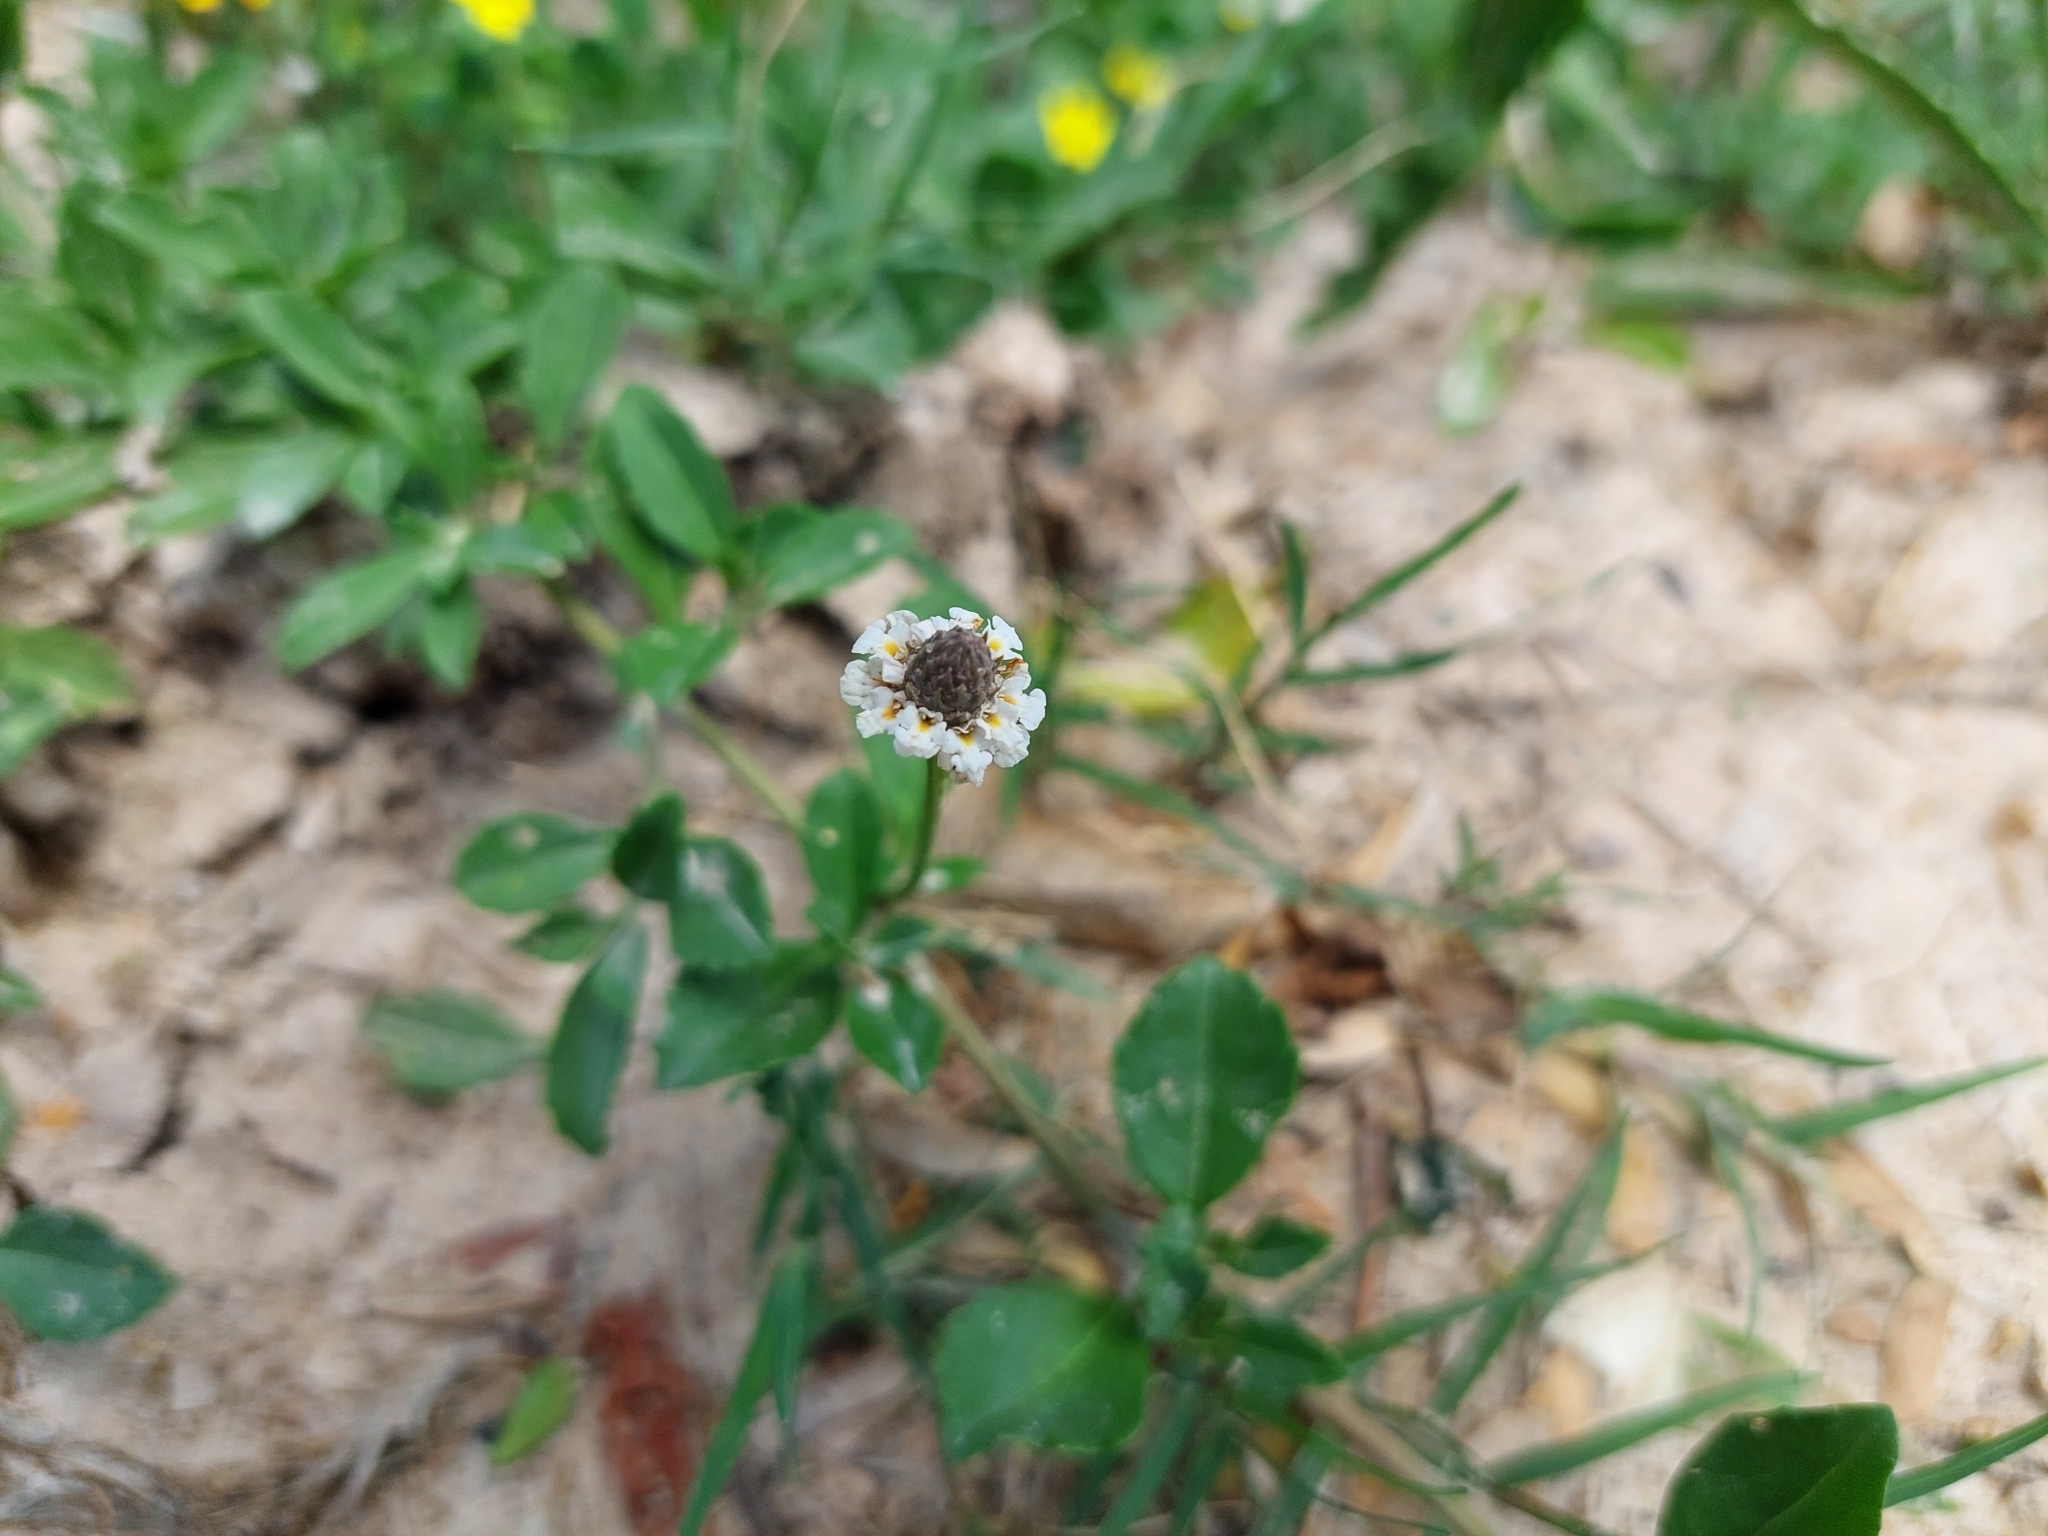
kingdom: Plantae
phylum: Tracheophyta
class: Magnoliopsida
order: Lamiales
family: Verbenaceae
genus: Phyla
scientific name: Phyla nodiflora
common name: Frogfruit
